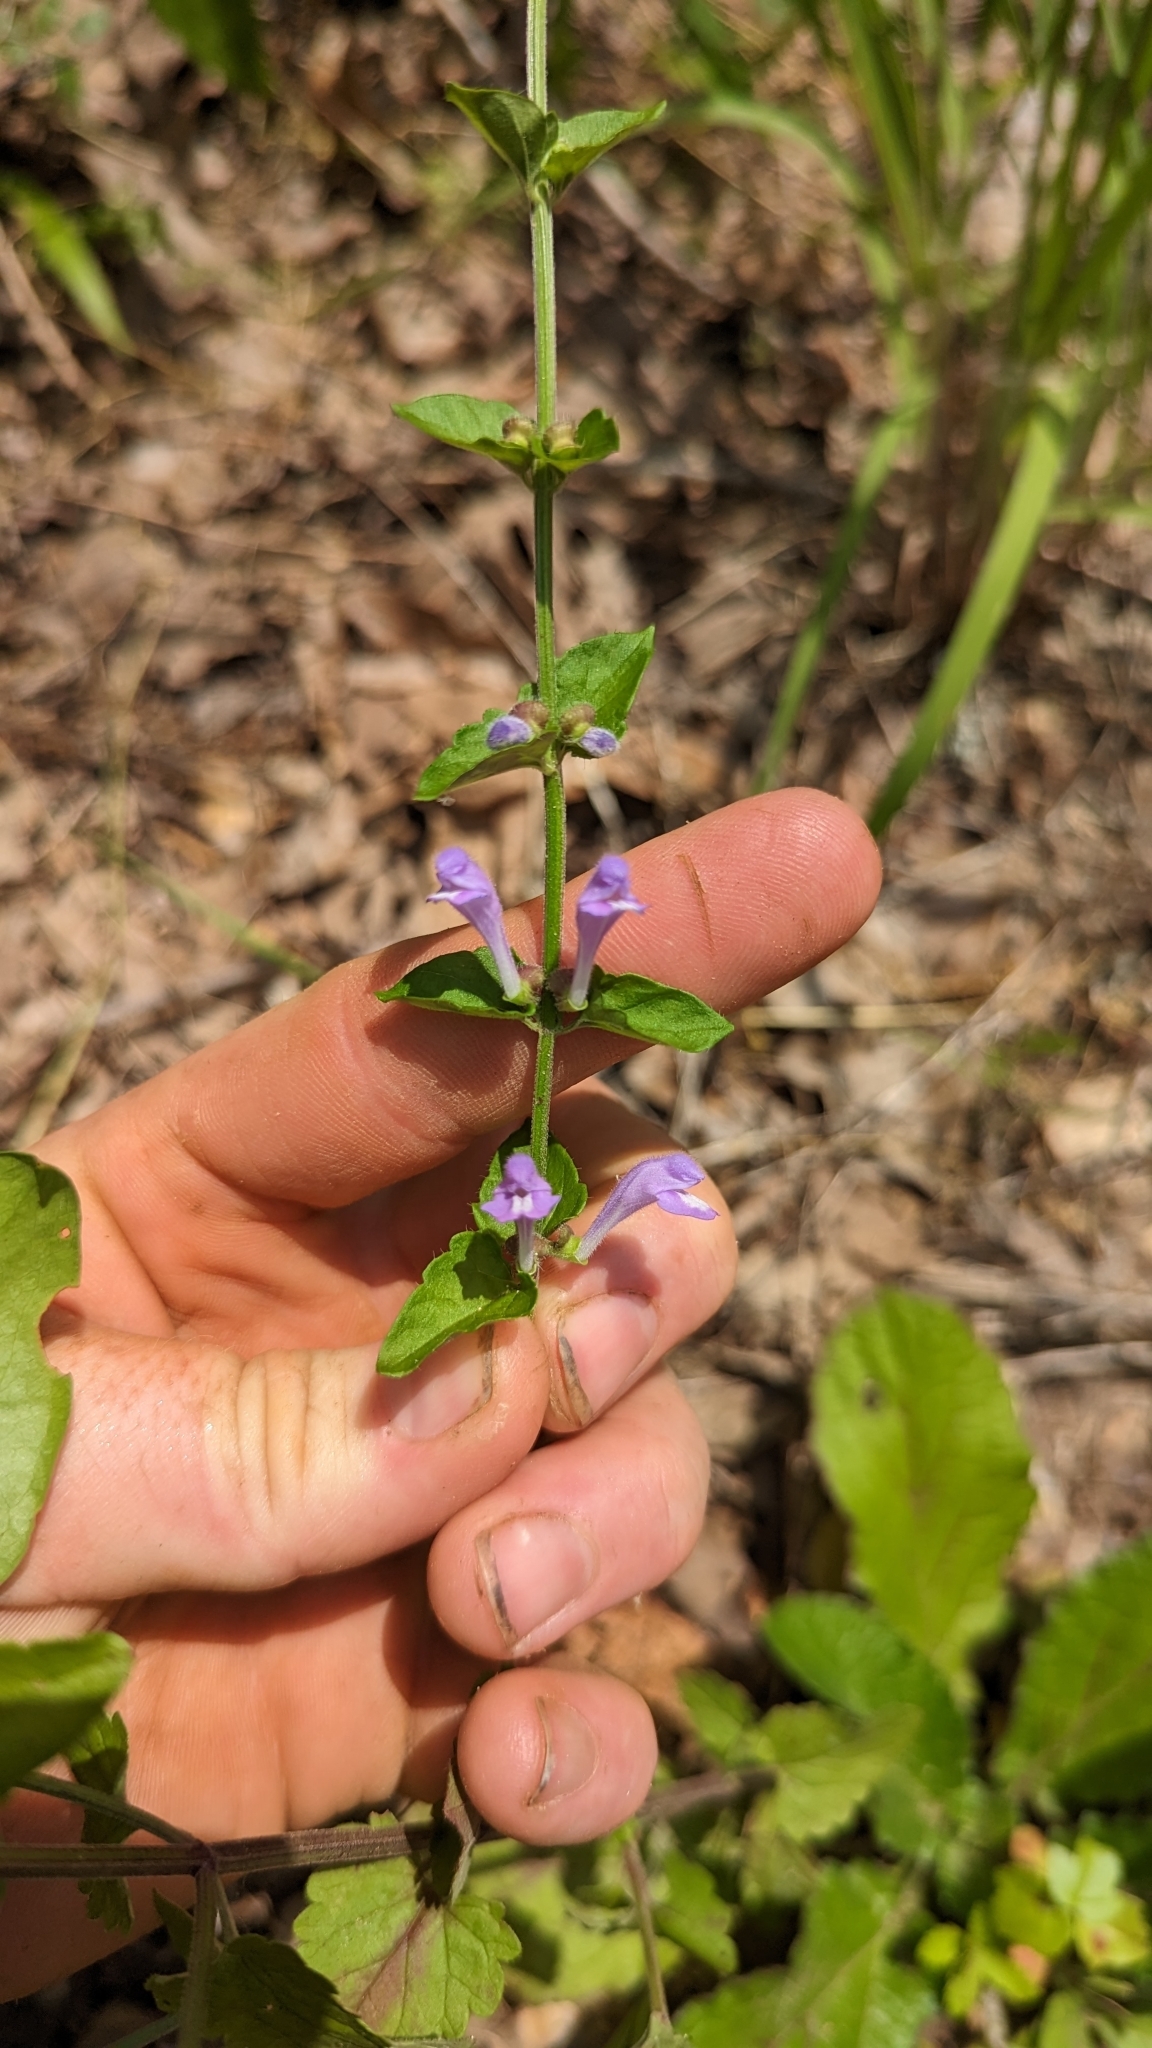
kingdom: Plantae
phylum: Tracheophyta
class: Magnoliopsida
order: Lamiales
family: Lamiaceae
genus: Scutellaria
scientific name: Scutellaria cardiophylla
